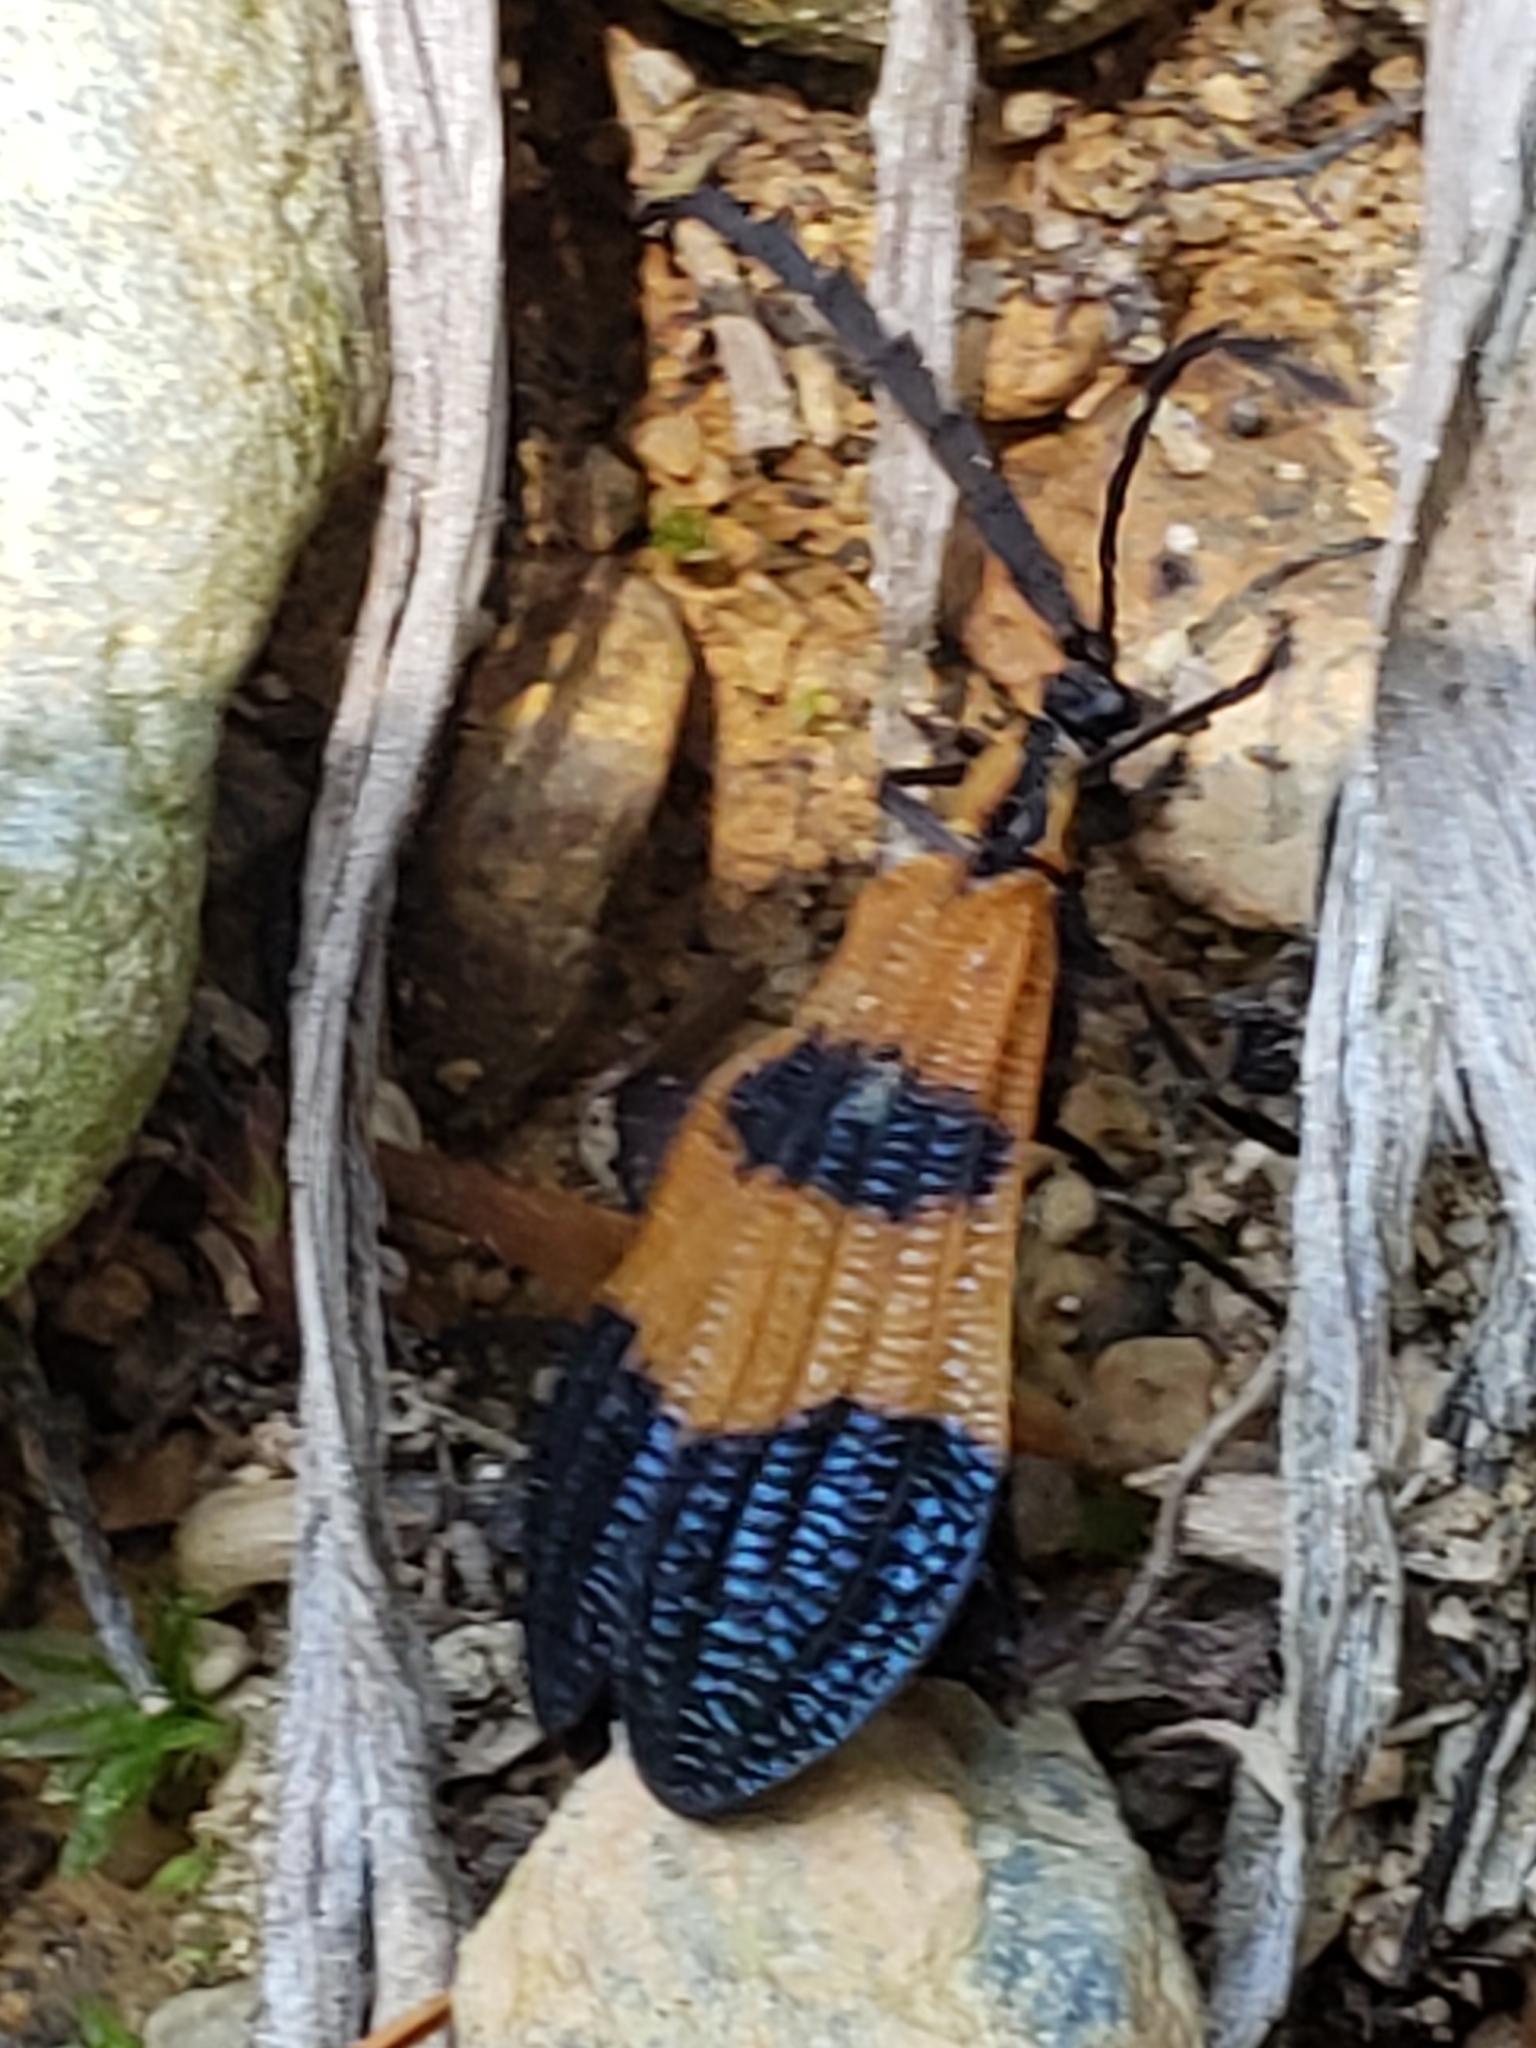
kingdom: Animalia
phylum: Arthropoda
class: Insecta
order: Coleoptera
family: Lycidae
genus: Calopteron
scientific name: Calopteron terminale
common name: End band net-winged beetle
